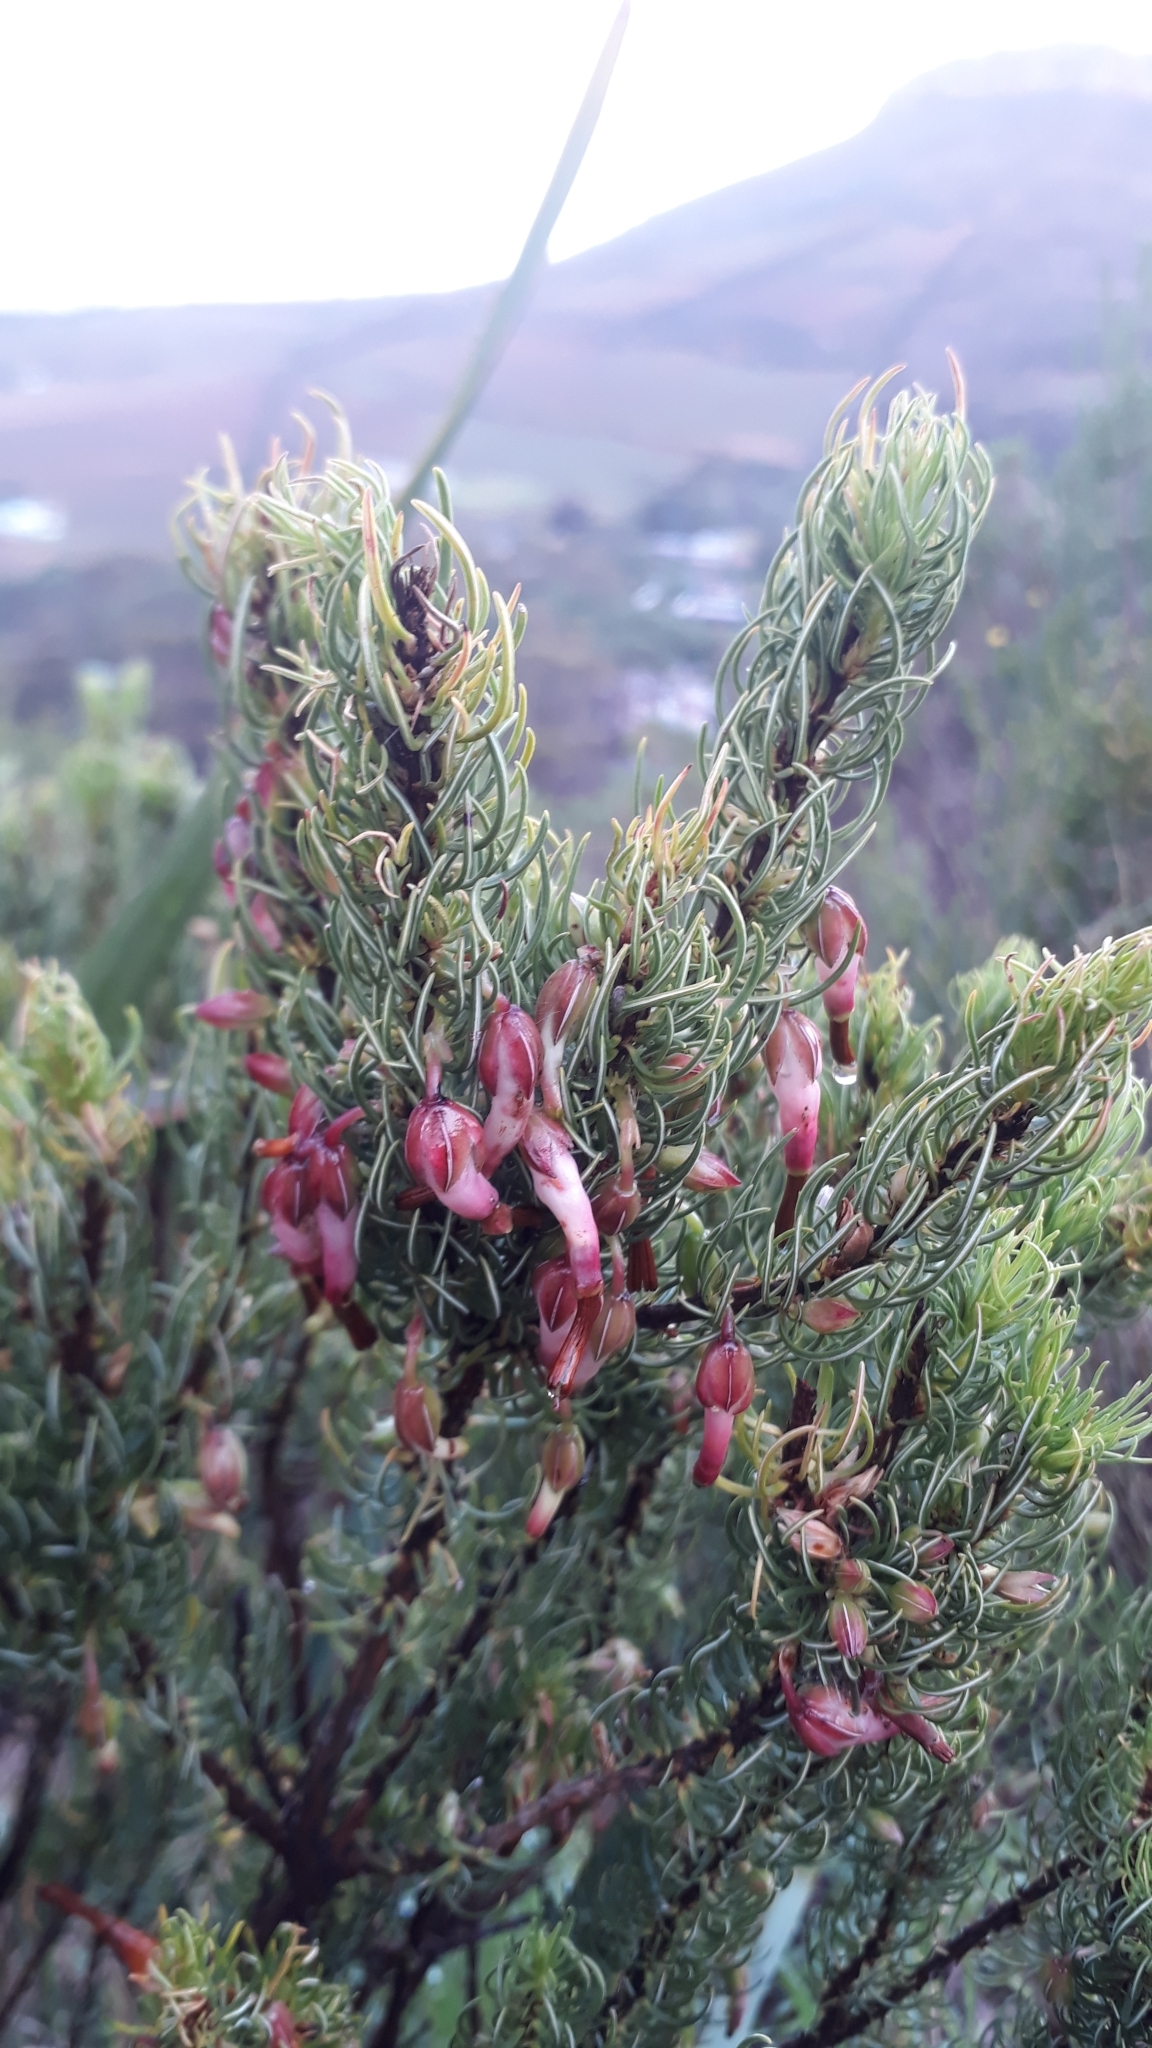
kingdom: Plantae
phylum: Tracheophyta
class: Magnoliopsida
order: Ericales
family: Ericaceae
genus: Erica
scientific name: Erica plukenetii
